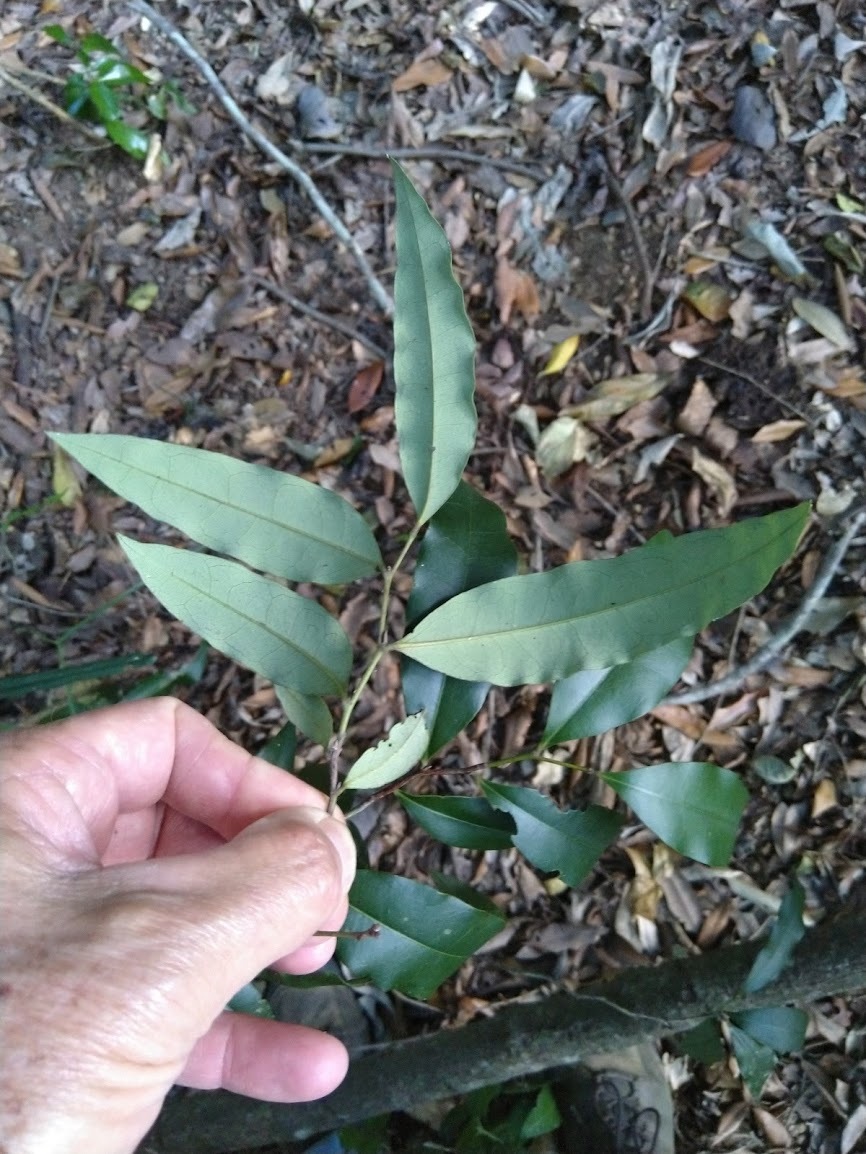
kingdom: Plantae
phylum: Tracheophyta
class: Magnoliopsida
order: Ericales
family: Ebenaceae
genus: Diospyros
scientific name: Diospyros pentamera
